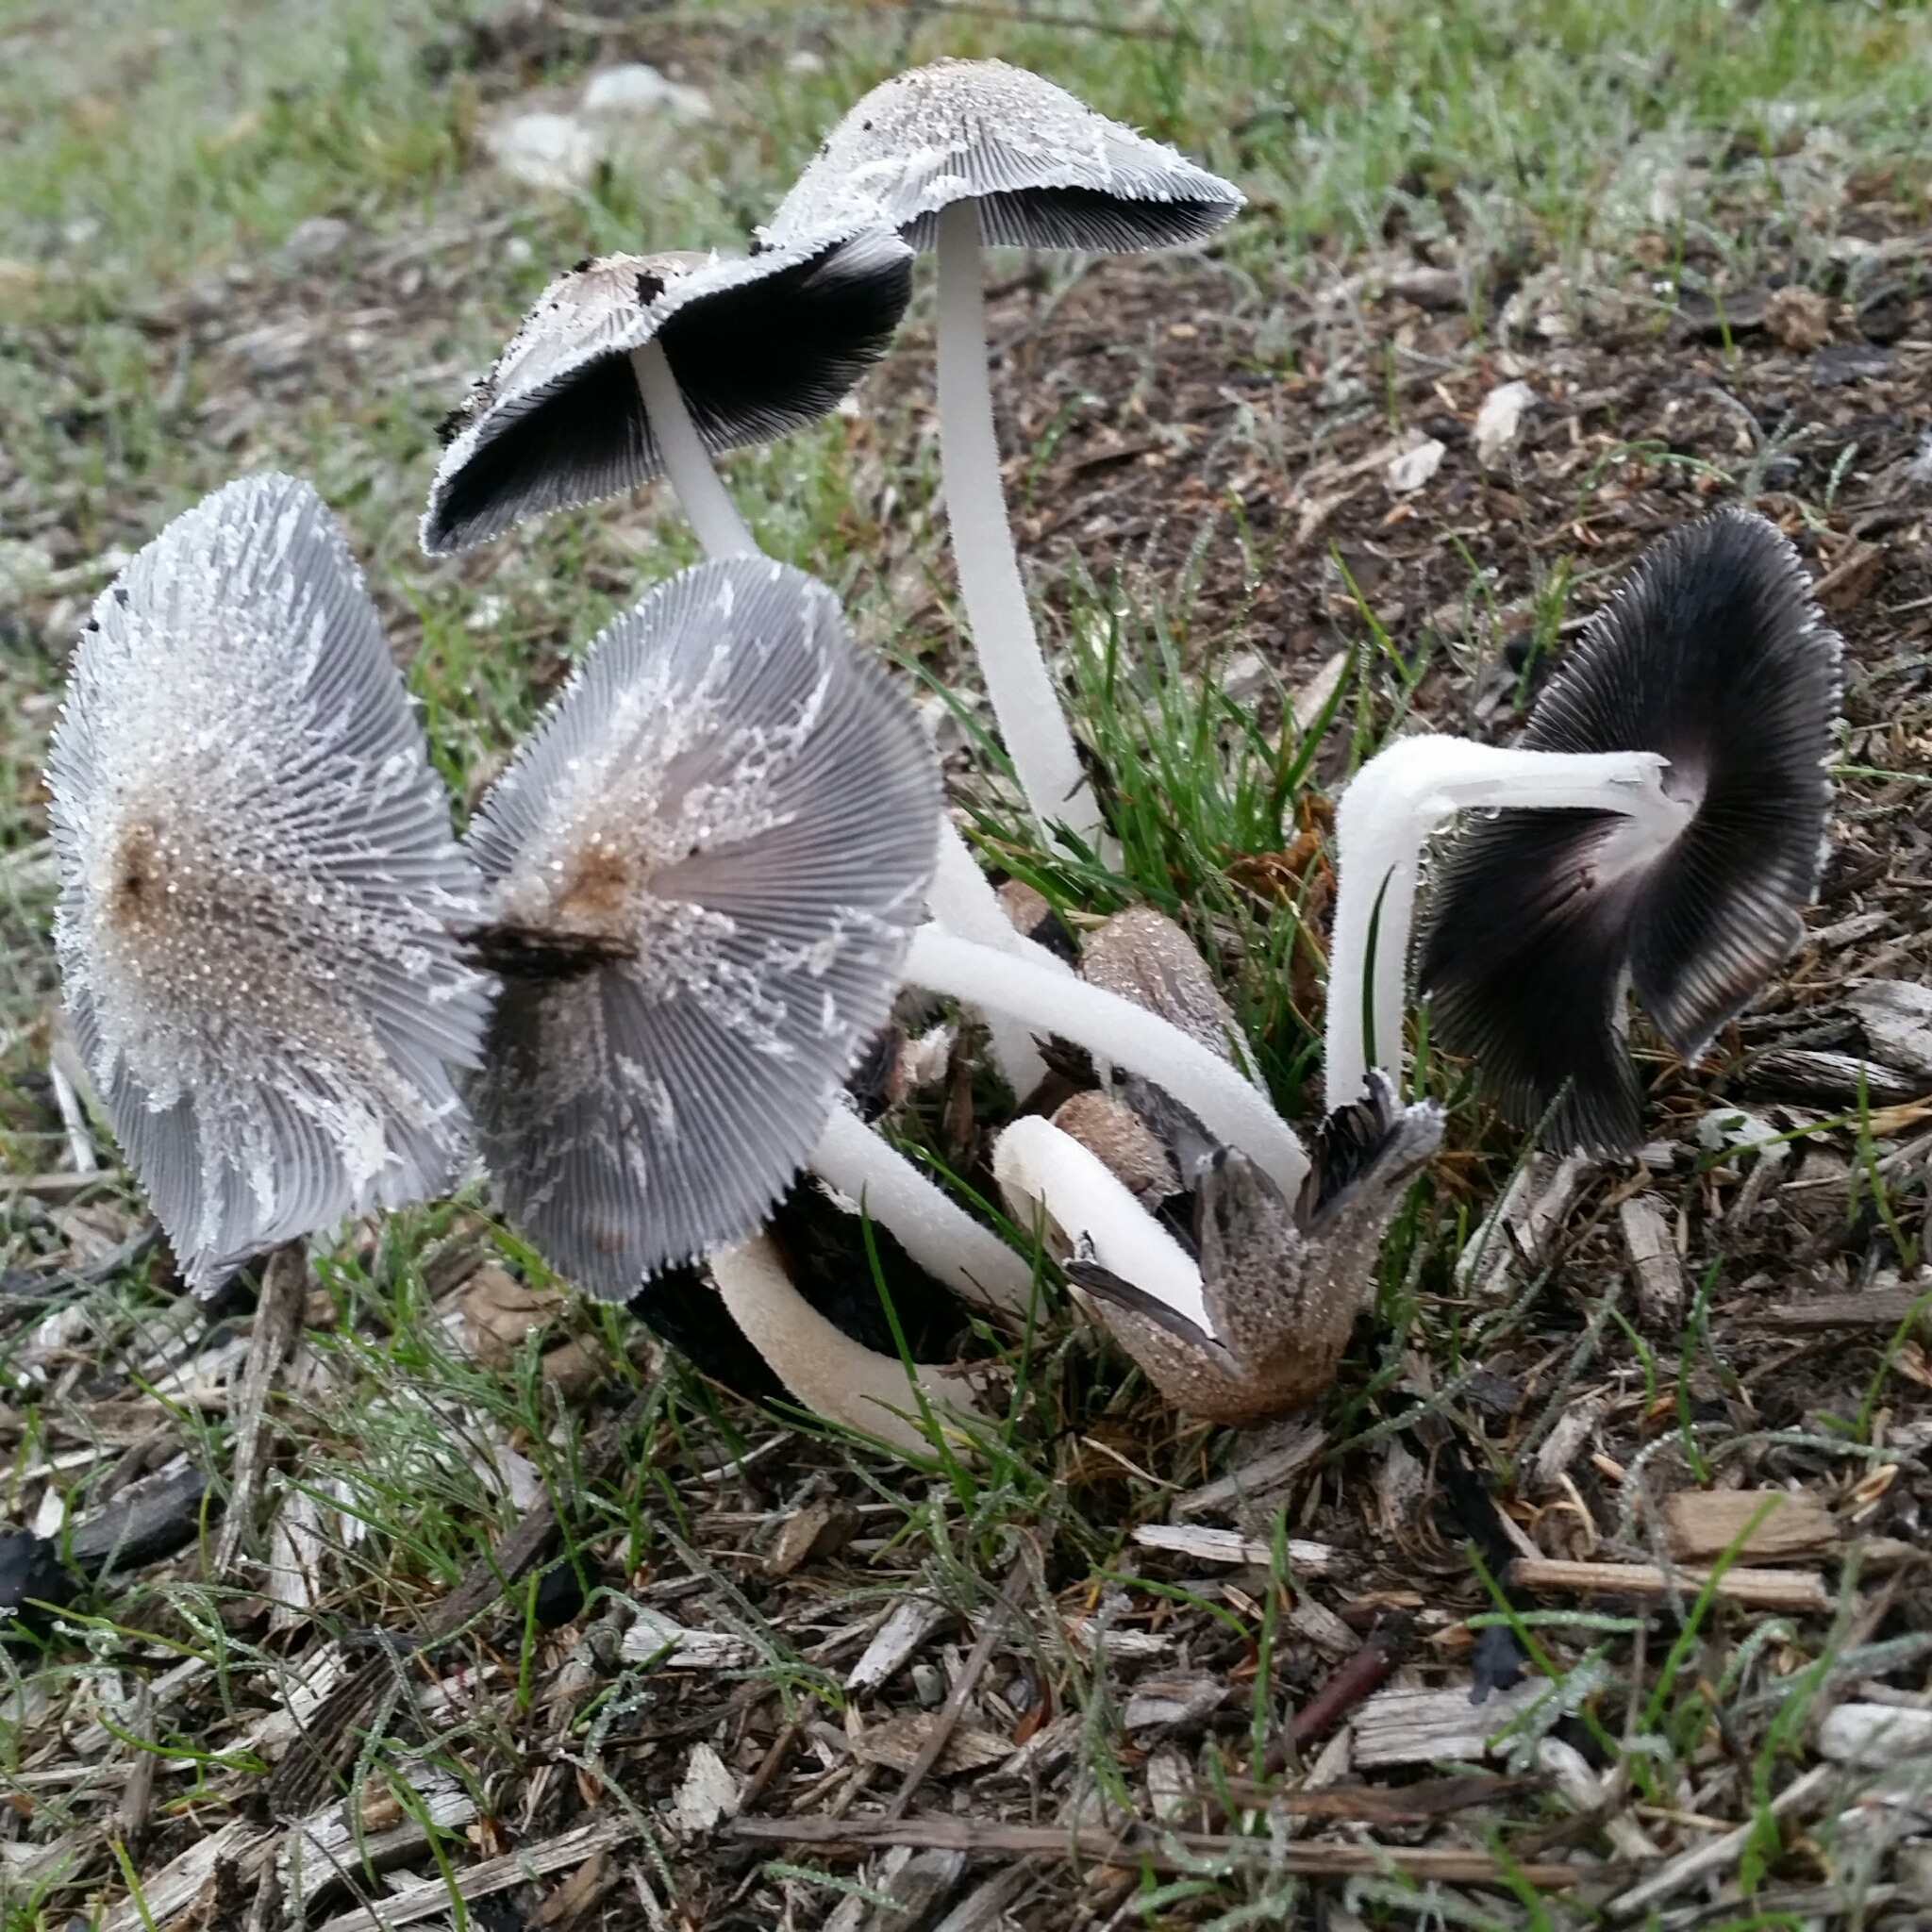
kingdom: Fungi
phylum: Basidiomycota
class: Agaricomycetes
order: Agaricales
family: Psathyrellaceae
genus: Coprinopsis
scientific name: Coprinopsis lagopus
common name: Hare'sfoot inkcap
